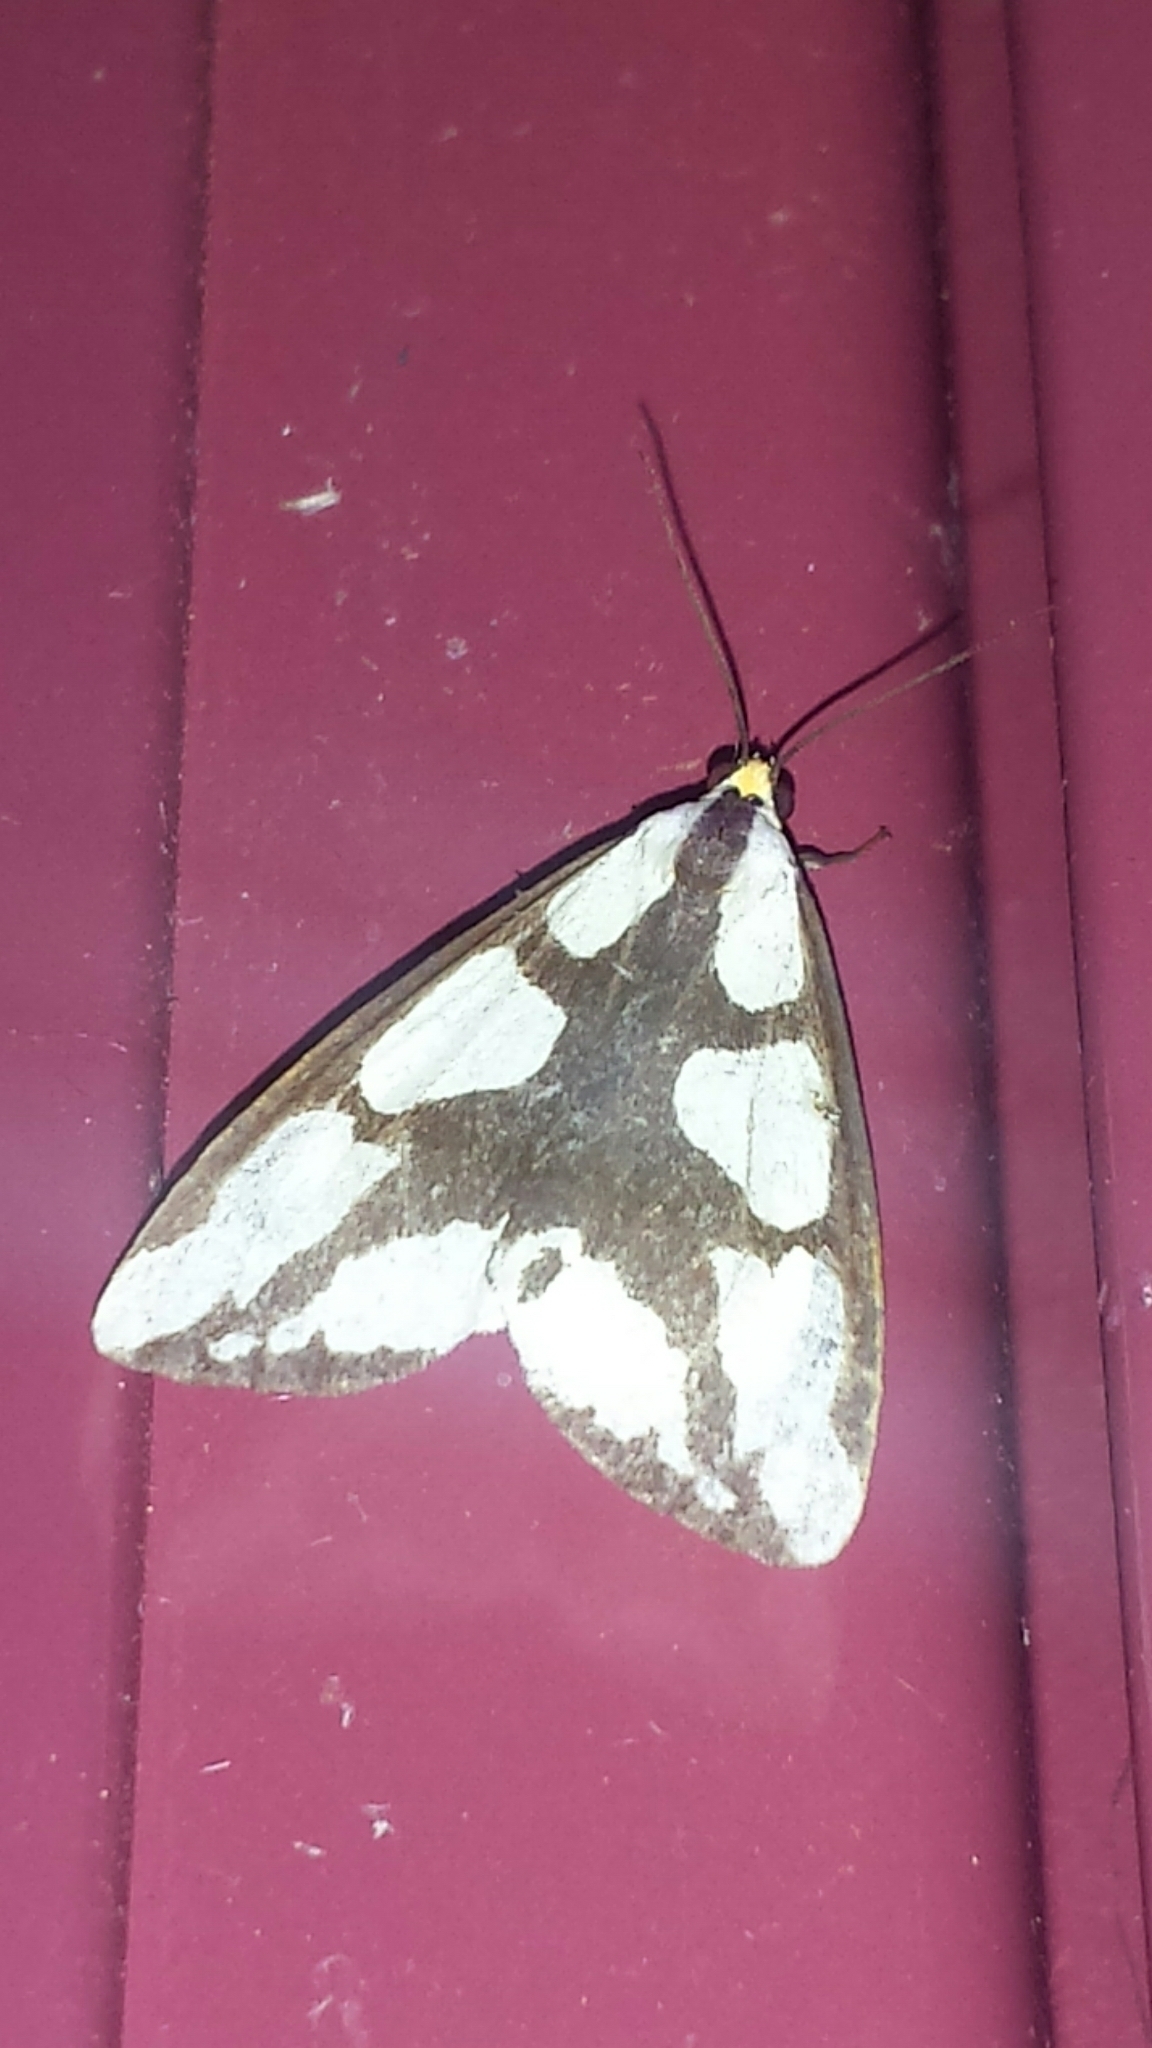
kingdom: Animalia
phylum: Arthropoda
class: Insecta
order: Lepidoptera
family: Erebidae
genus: Haploa
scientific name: Haploa lecontei
